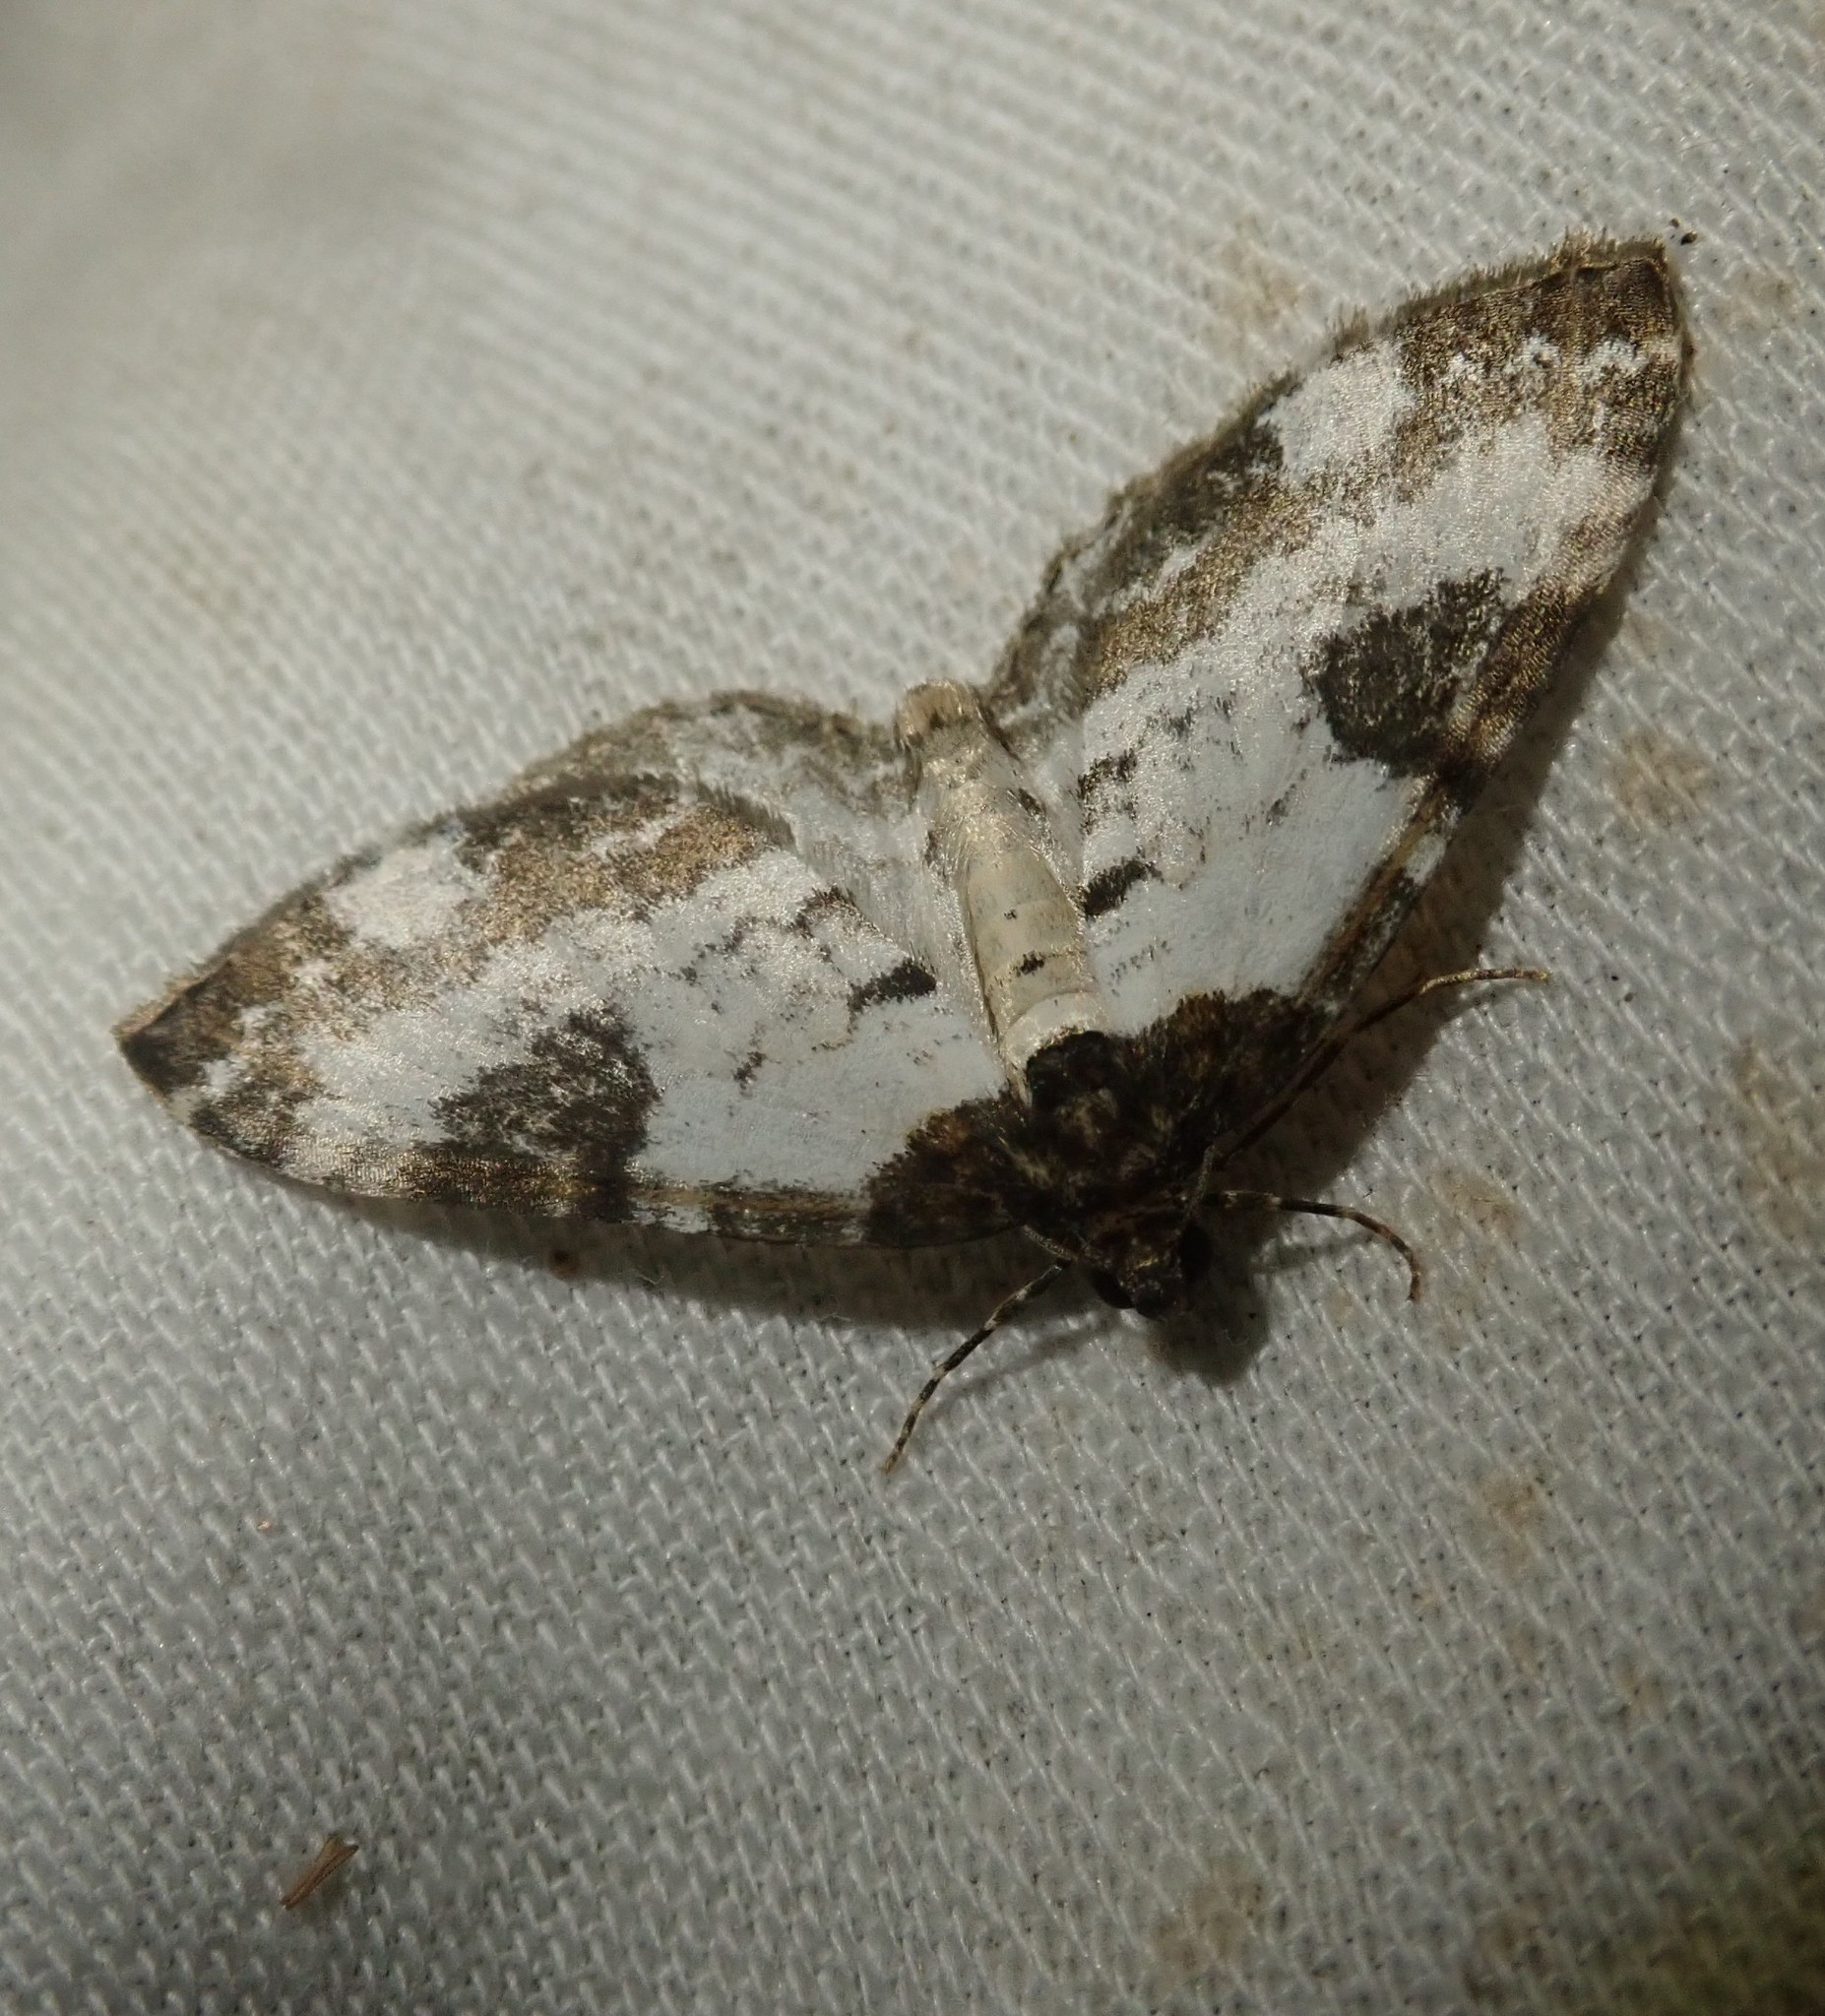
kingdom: Animalia
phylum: Arthropoda
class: Insecta
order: Lepidoptera
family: Geometridae
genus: Melanthia
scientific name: Melanthia procellata
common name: Pretty chalk carpet
